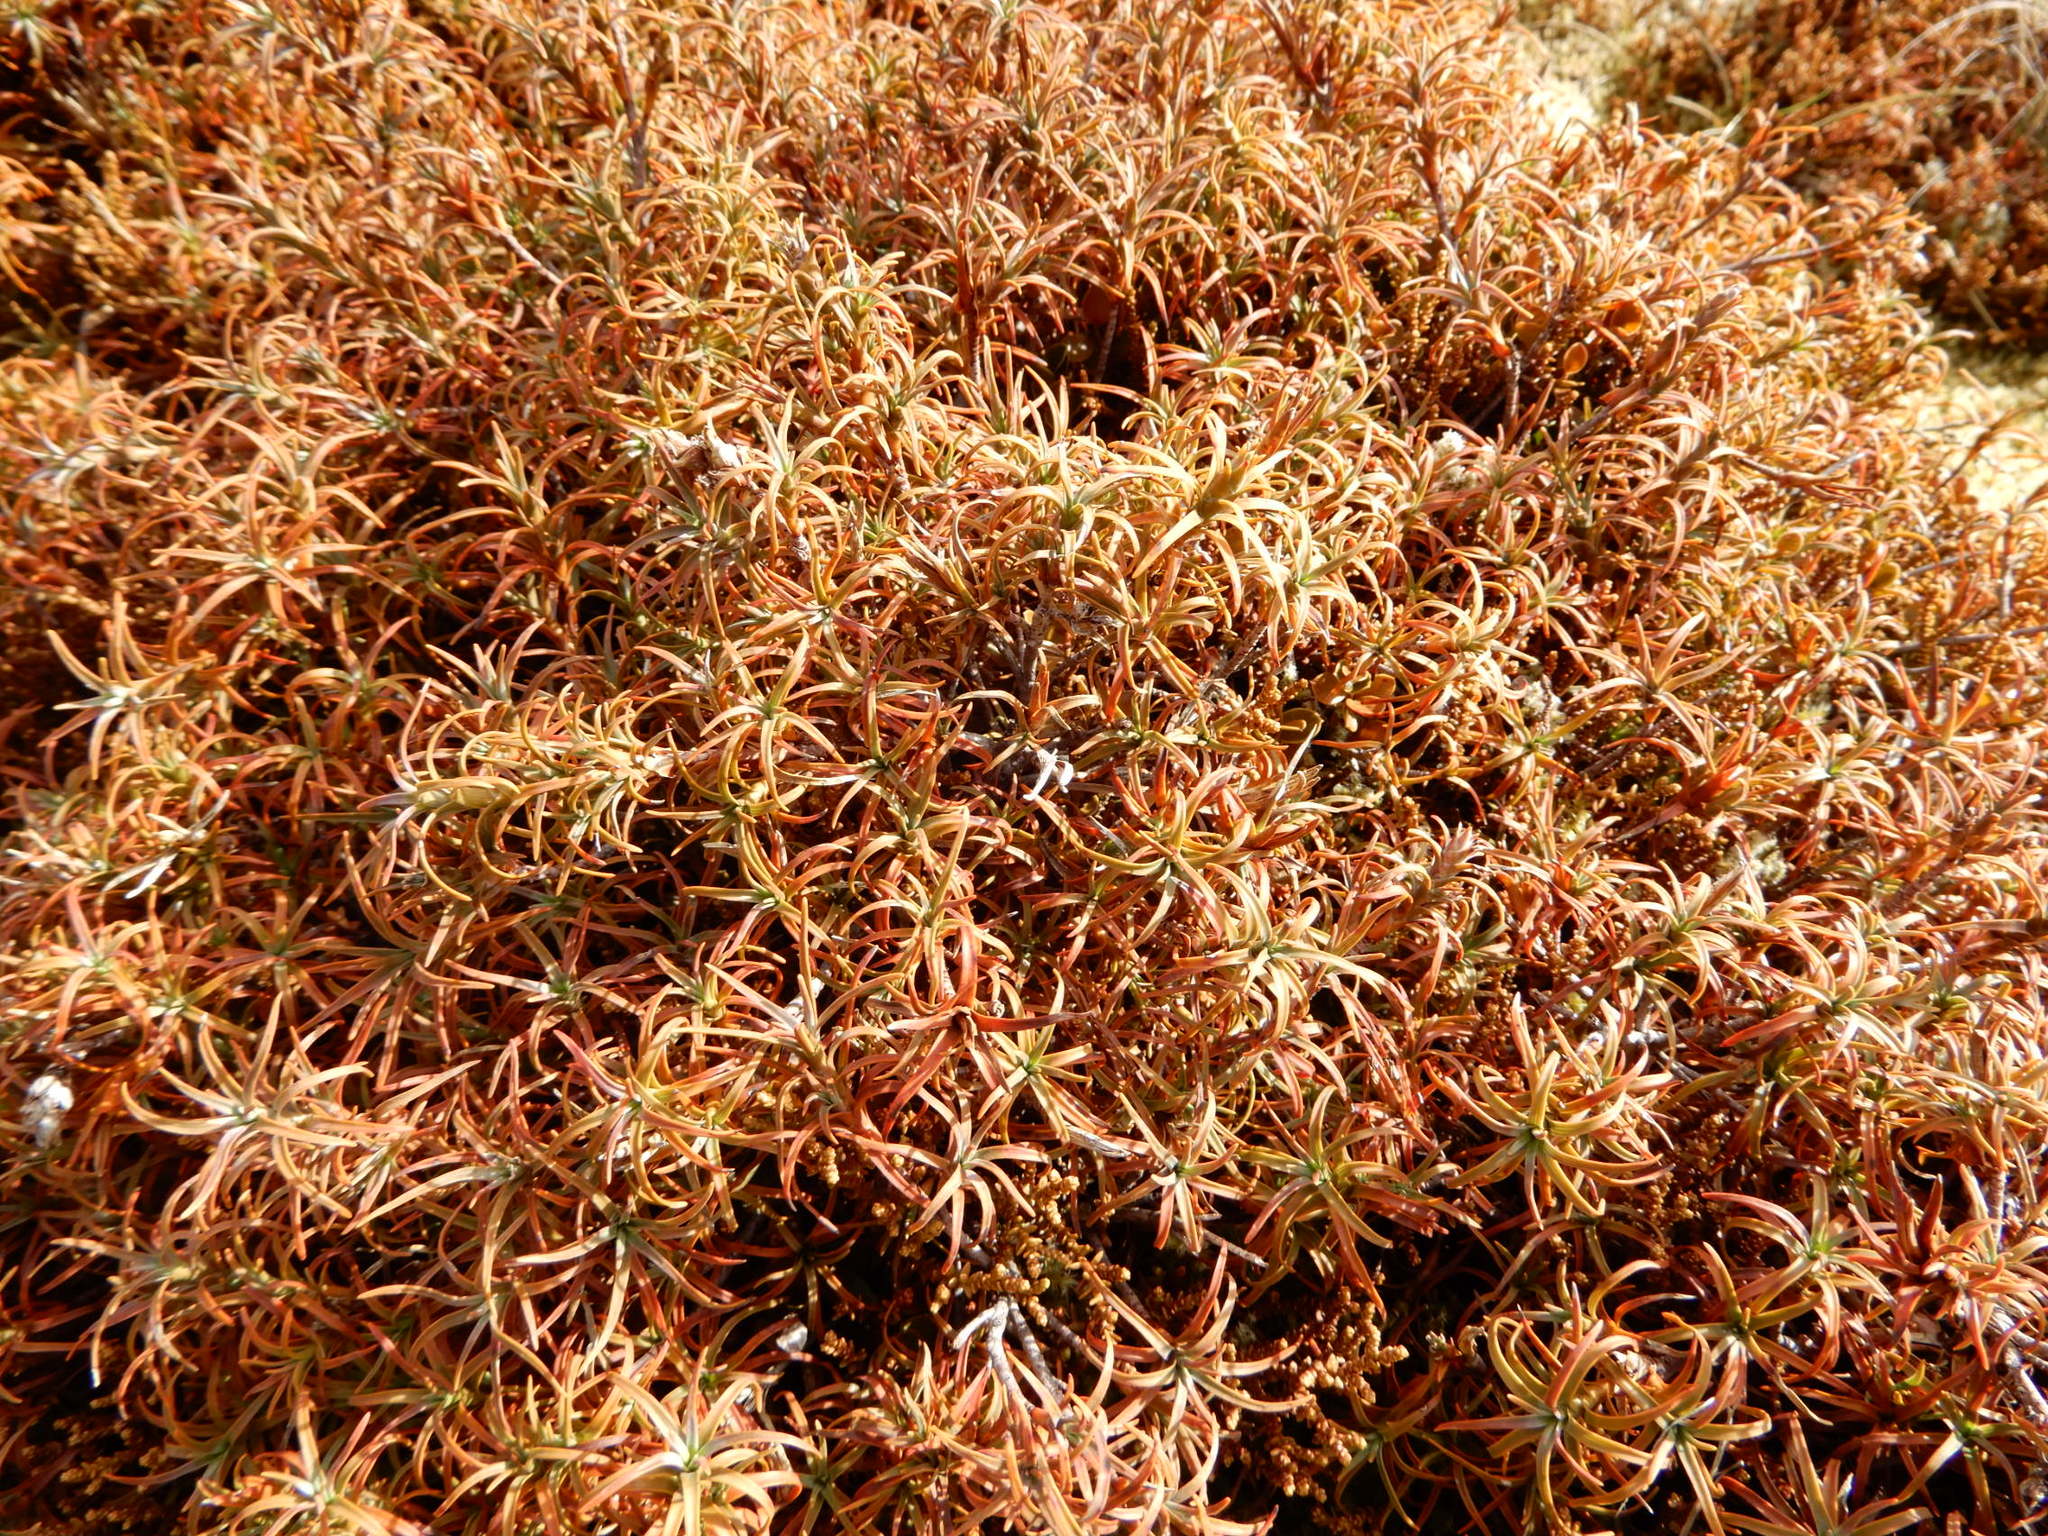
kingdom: Plantae
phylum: Tracheophyta
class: Magnoliopsida
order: Ericales
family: Ericaceae
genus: Dracophyllum
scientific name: Dracophyllum recurvum
